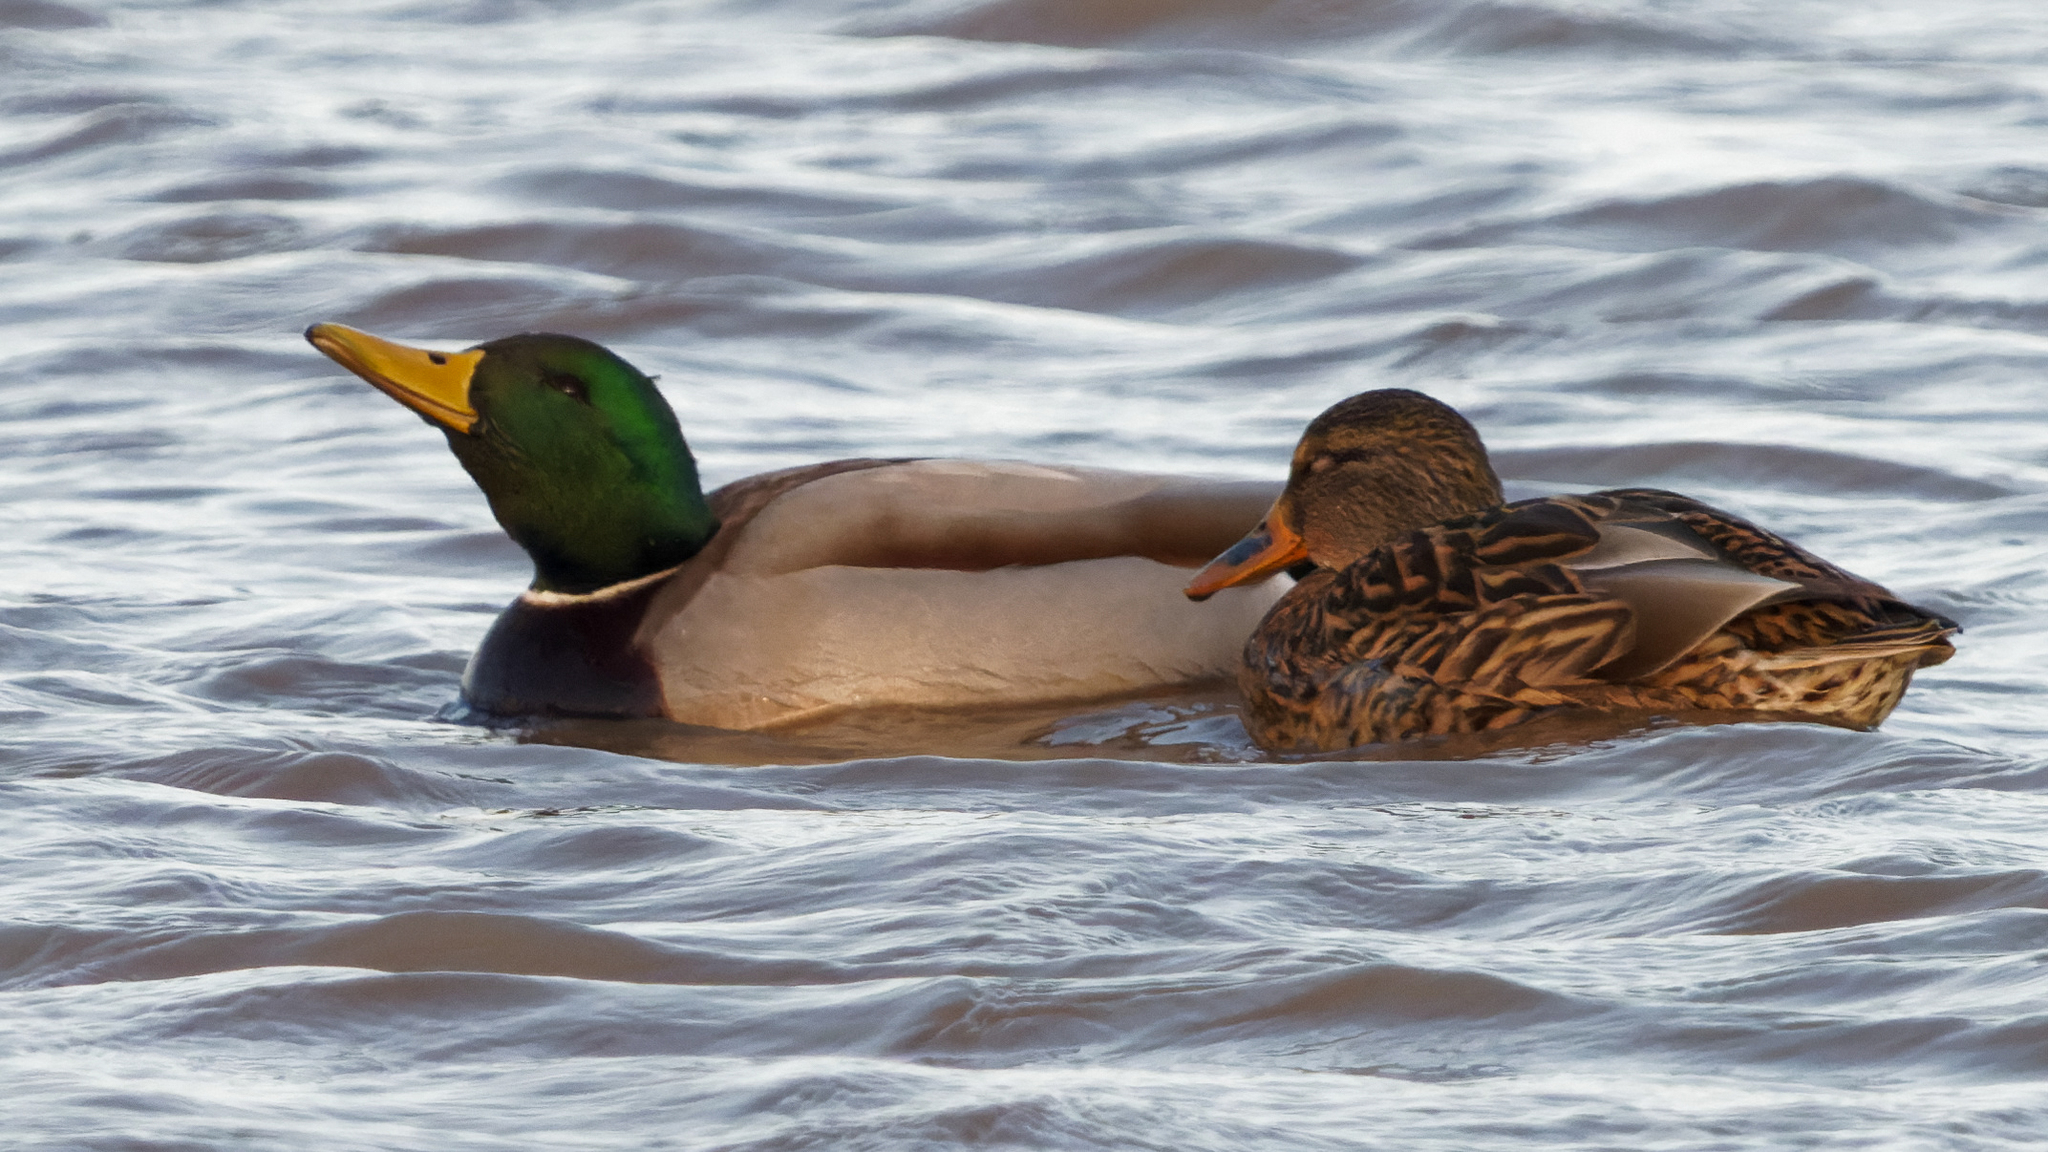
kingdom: Animalia
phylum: Chordata
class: Aves
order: Anseriformes
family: Anatidae
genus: Anas
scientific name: Anas platyrhynchos
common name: Mallard
